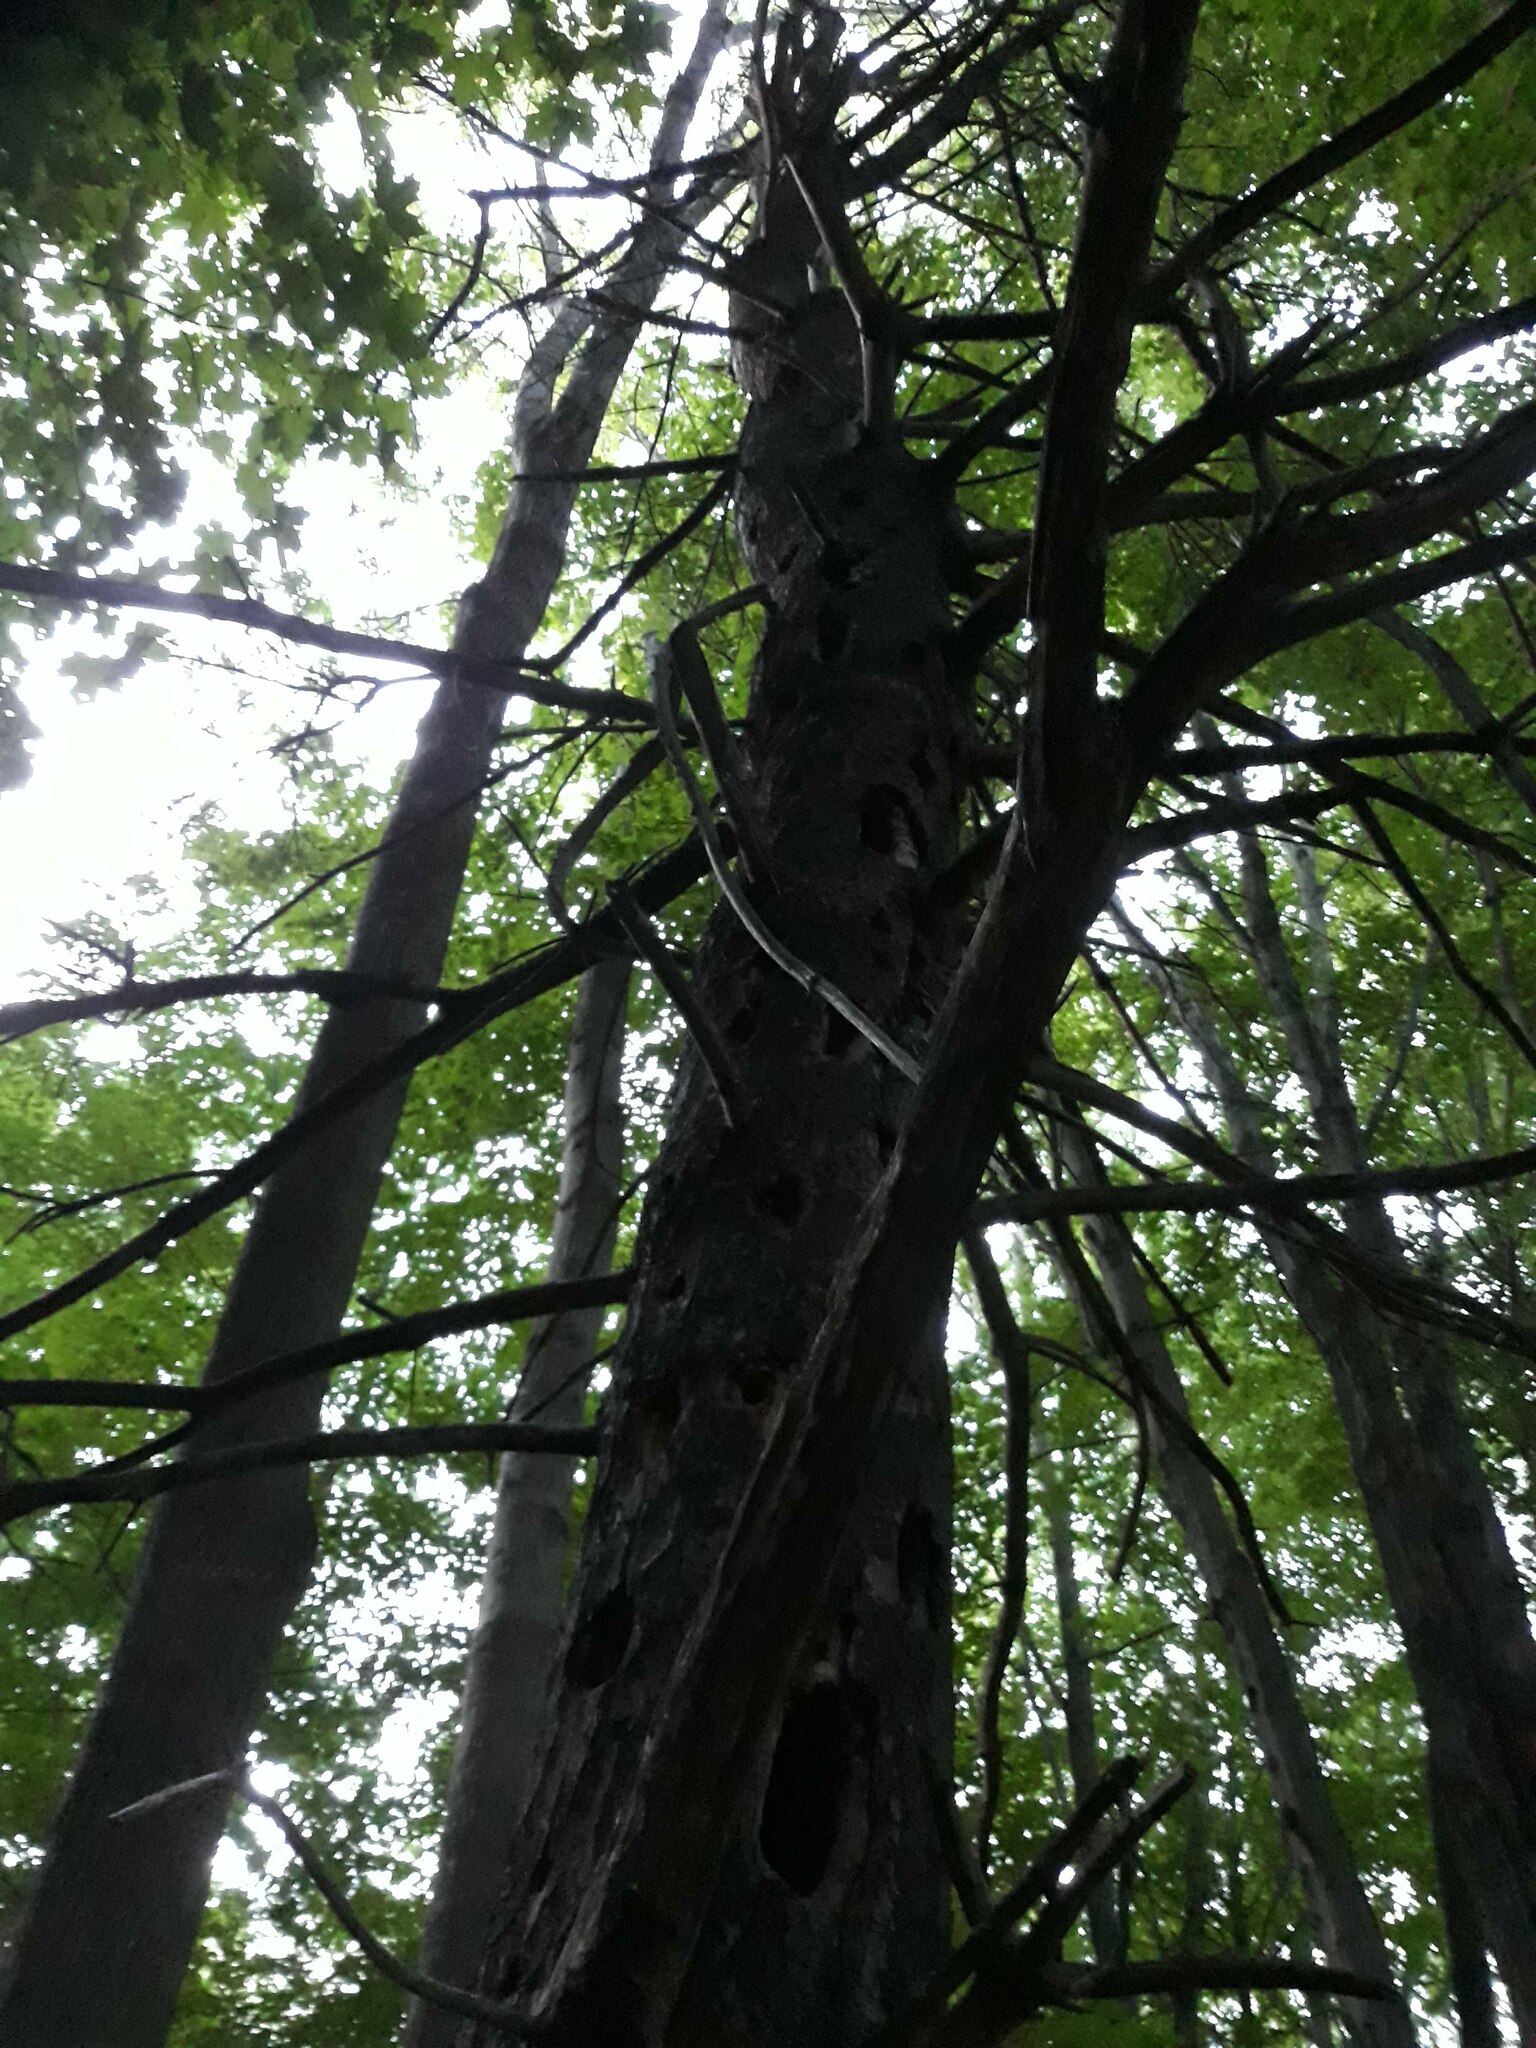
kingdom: Animalia
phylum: Chordata
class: Aves
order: Piciformes
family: Picidae
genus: Dryocopus
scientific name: Dryocopus pileatus
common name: Pileated woodpecker
